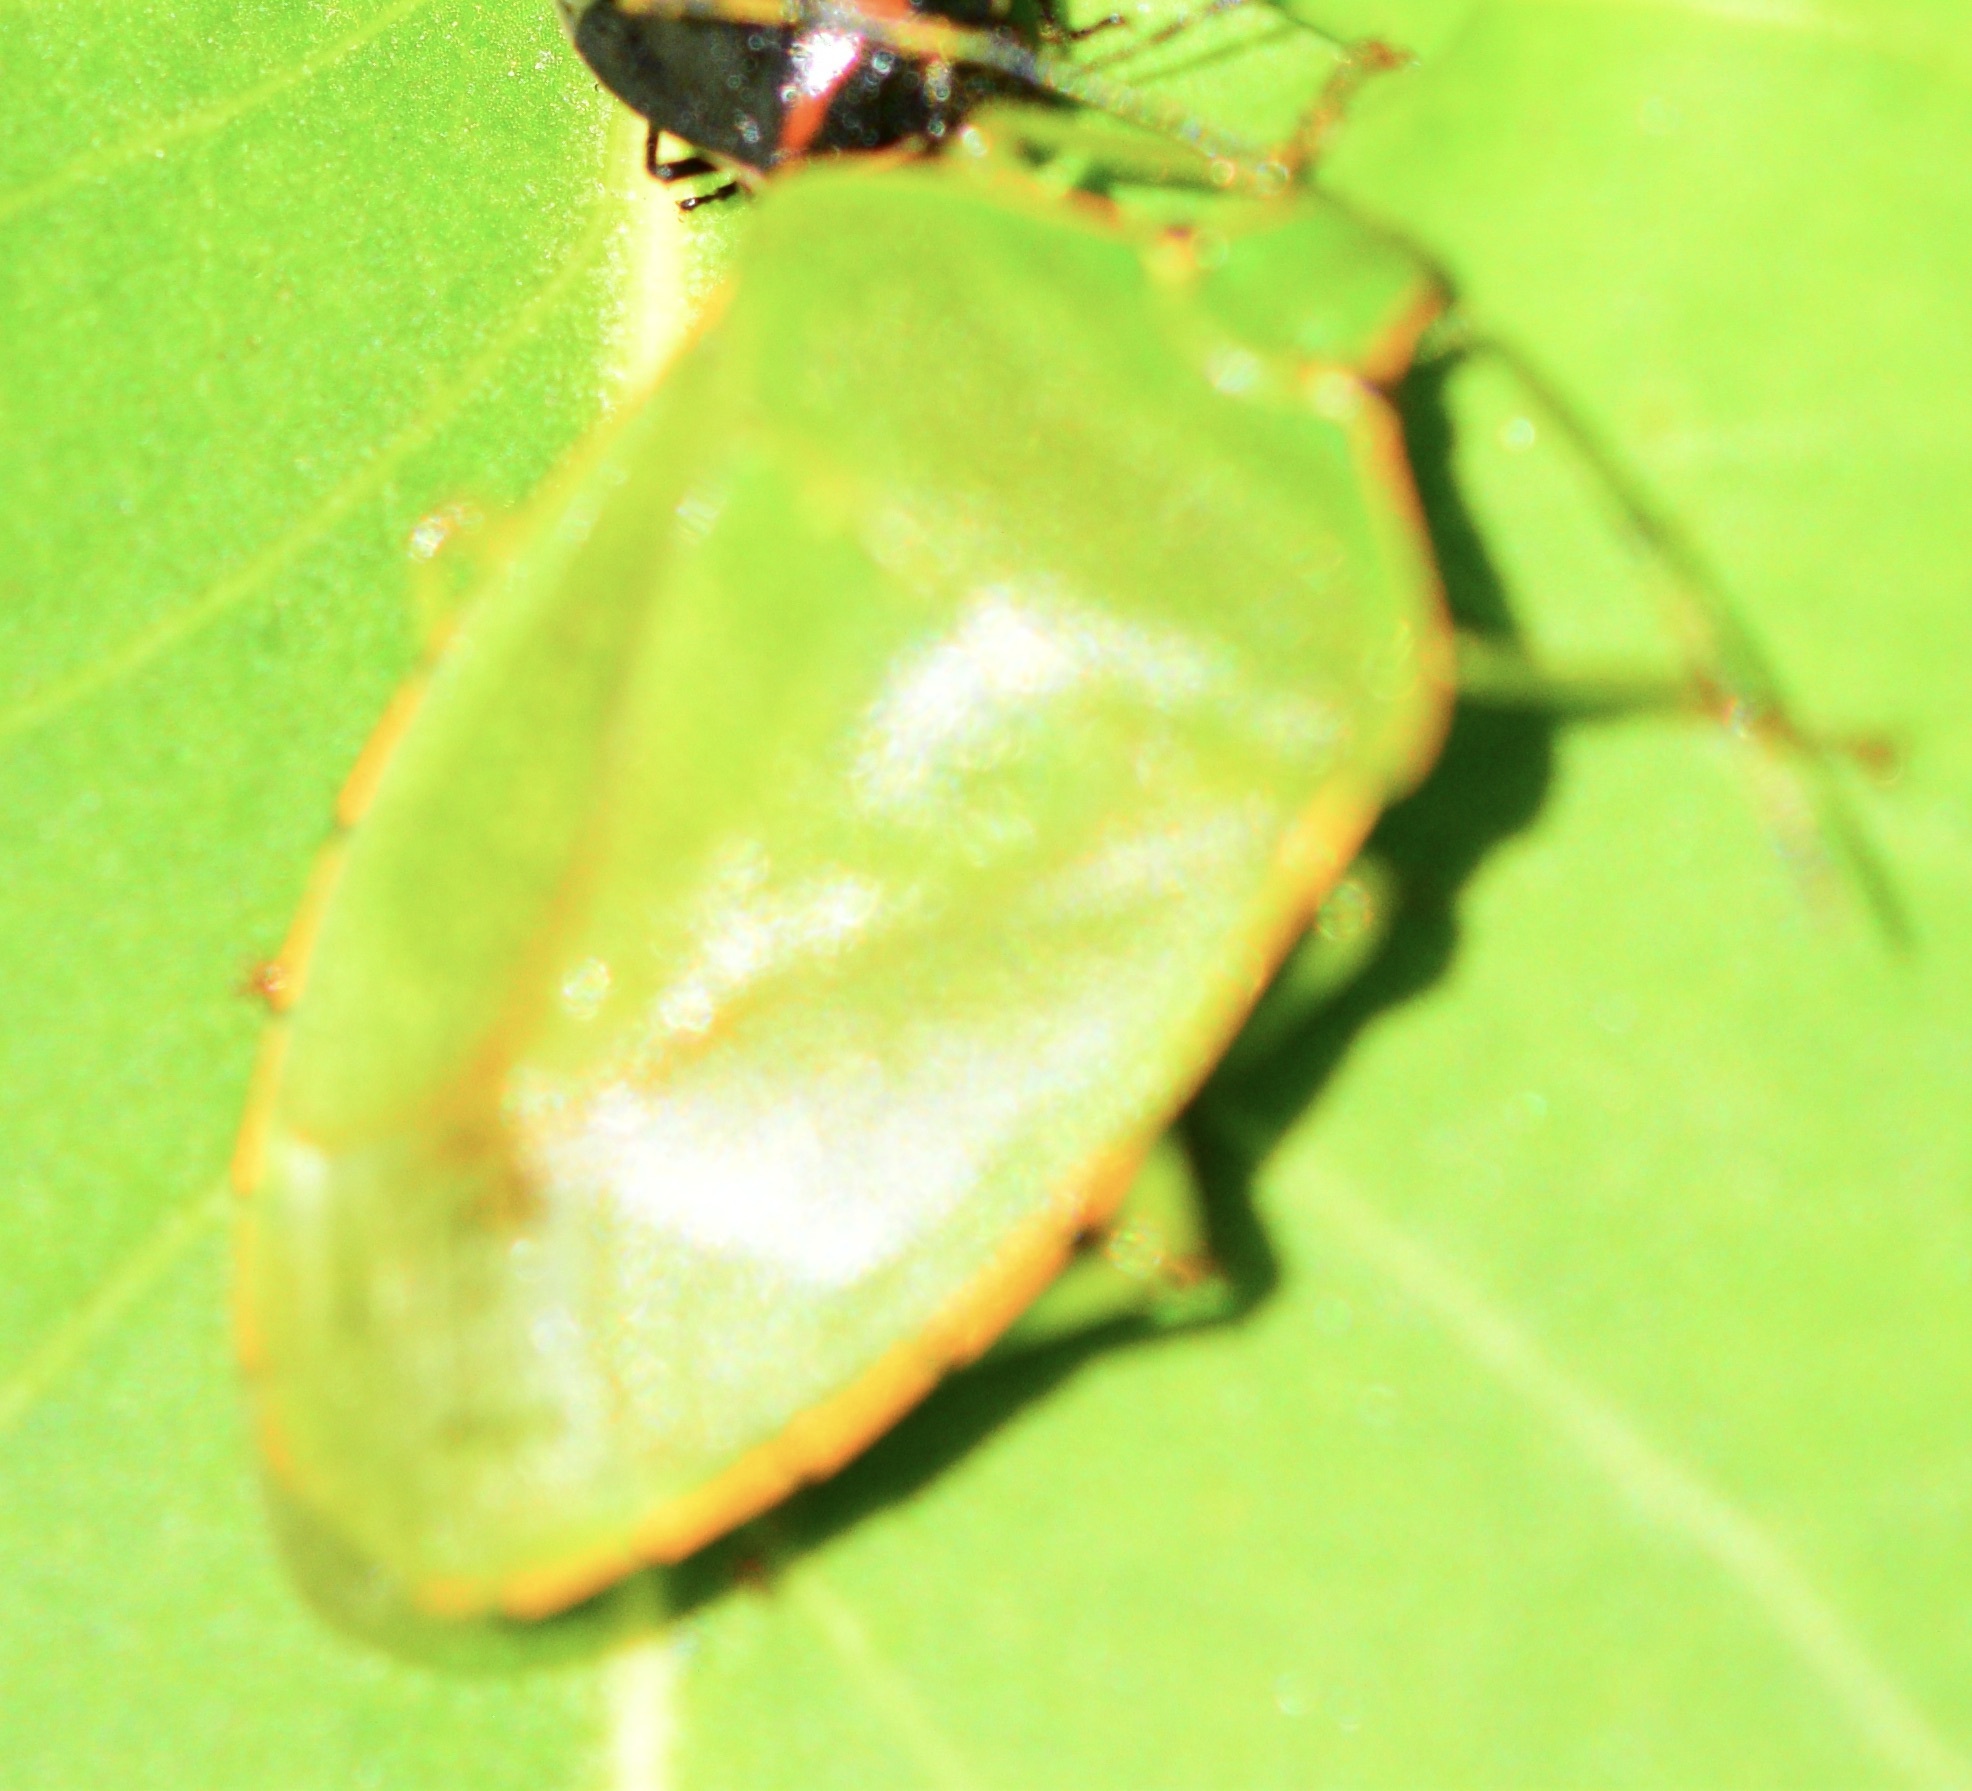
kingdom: Animalia
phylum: Arthropoda
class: Insecta
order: Hemiptera
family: Pentatomidae
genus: Chinavia
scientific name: Chinavia hilaris
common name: Green stink bug
